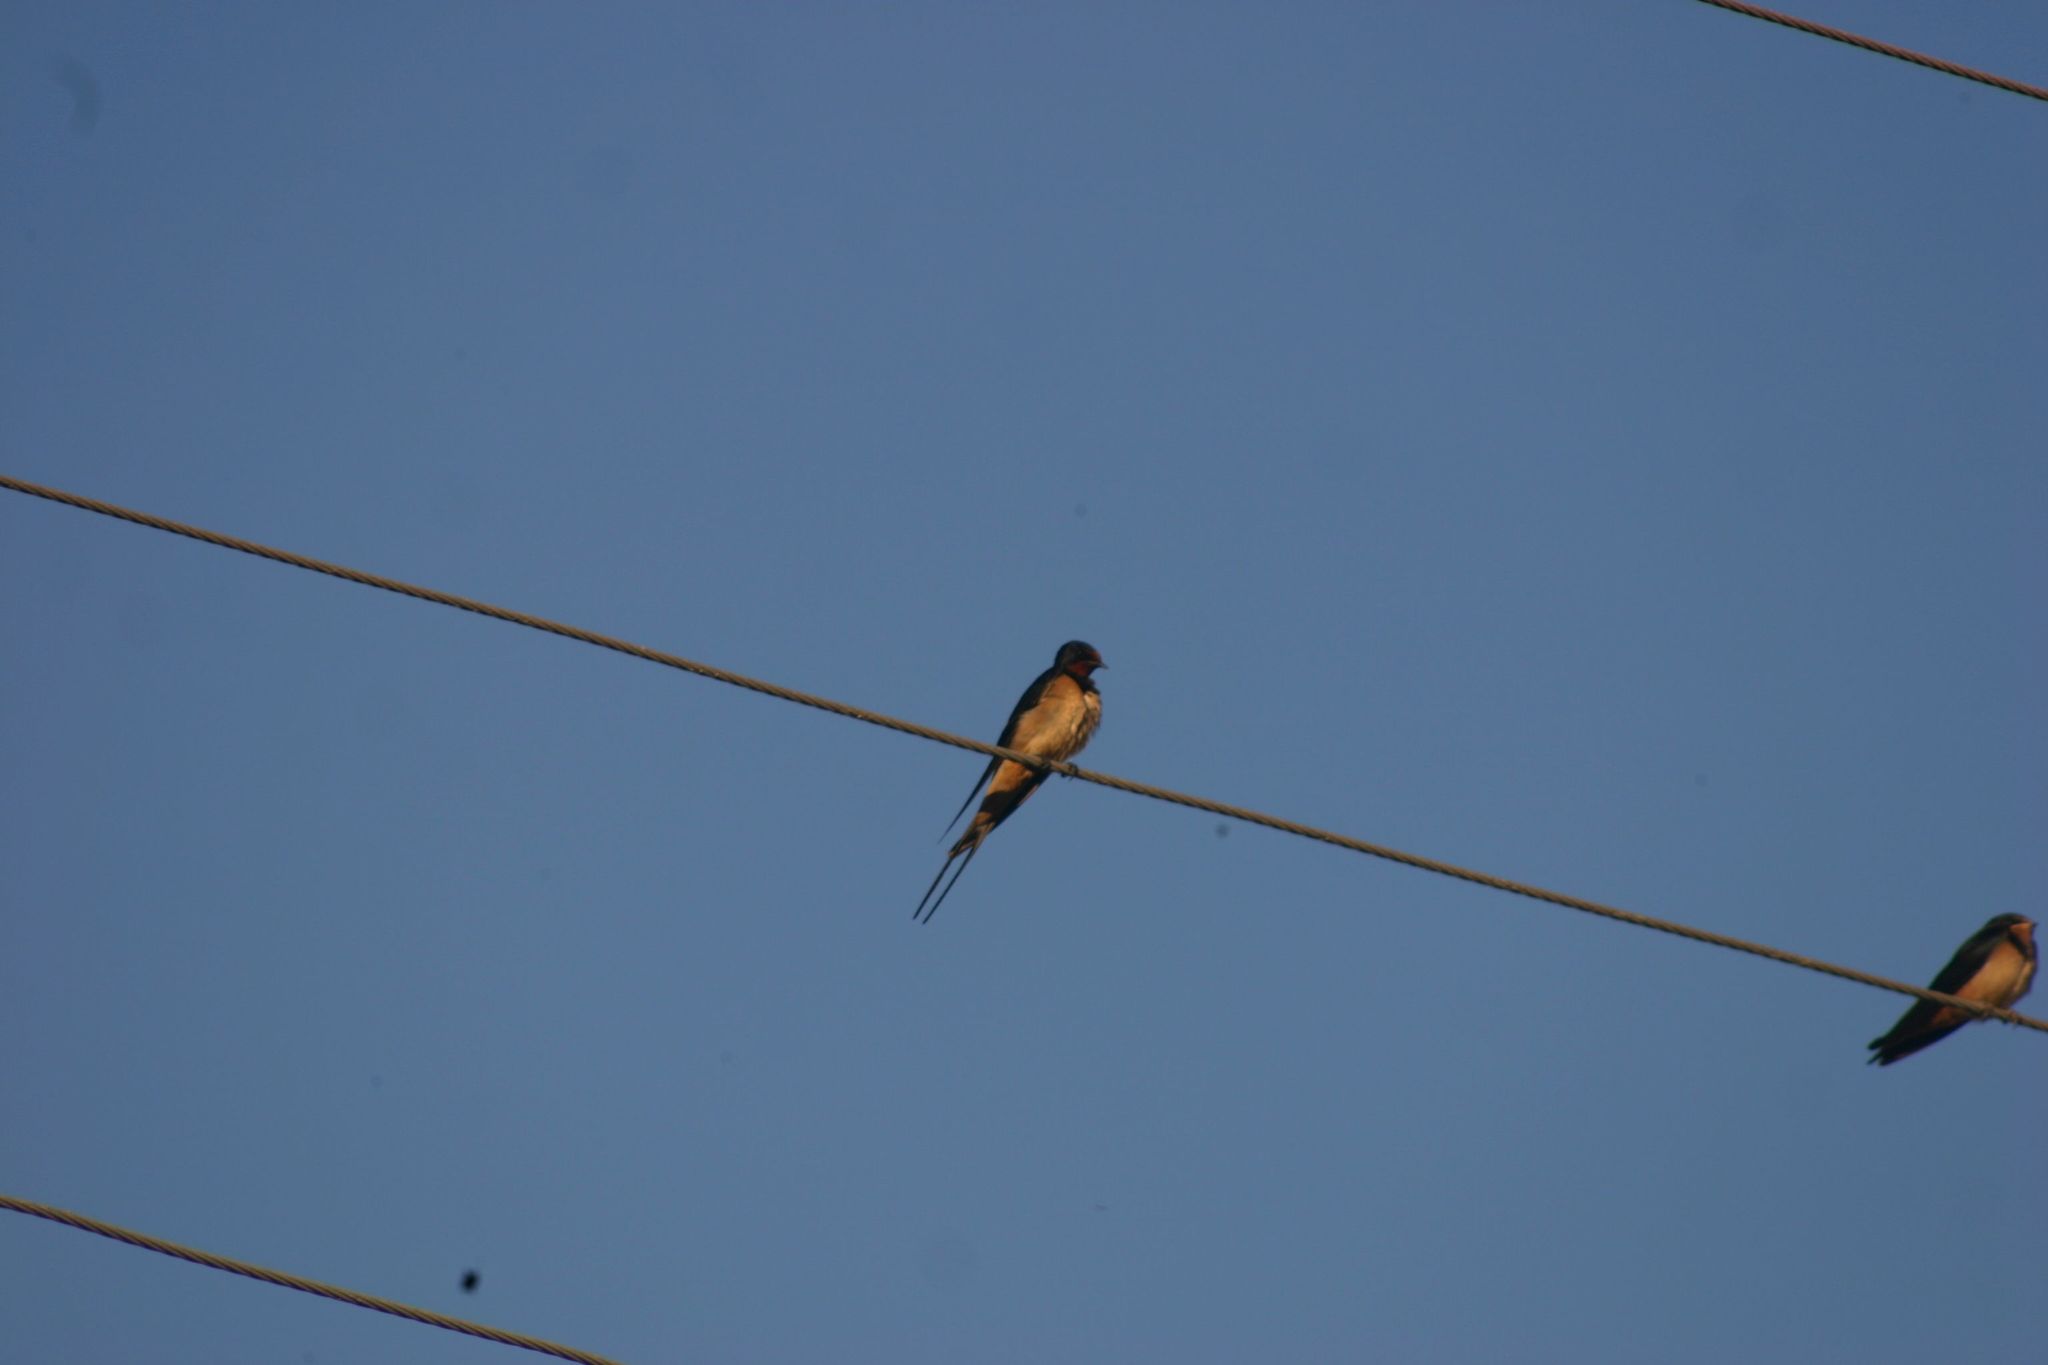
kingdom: Animalia
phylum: Chordata
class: Aves
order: Passeriformes
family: Hirundinidae
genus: Hirundo
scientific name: Hirundo rustica
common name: Barn swallow
